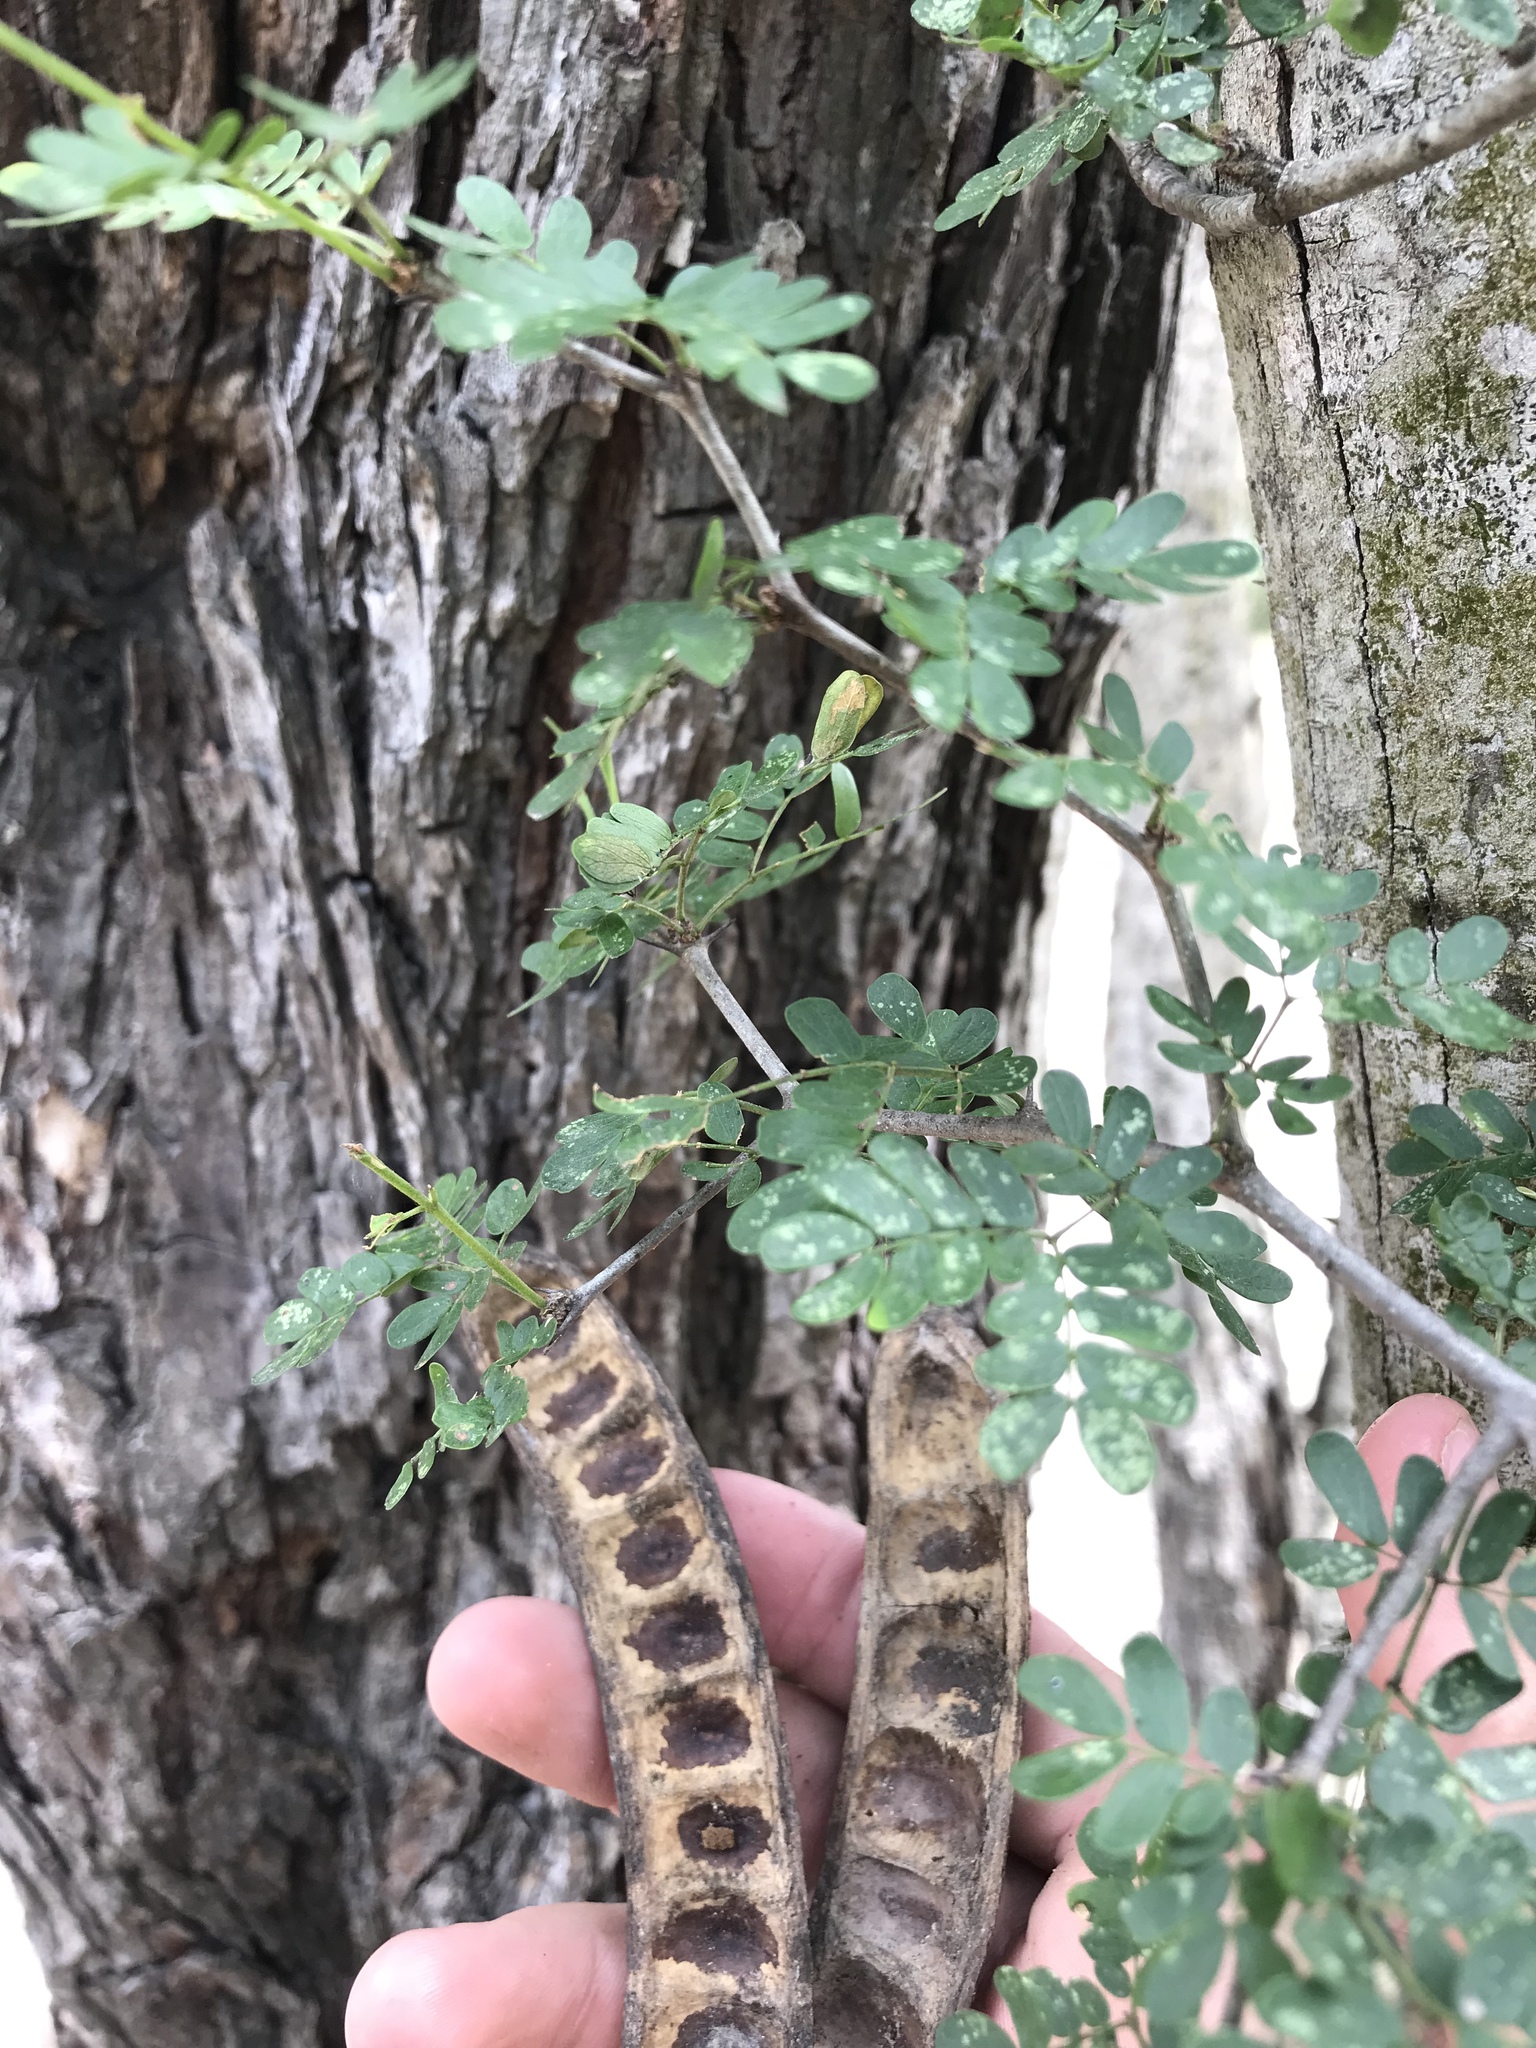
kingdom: Plantae
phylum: Tracheophyta
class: Magnoliopsida
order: Fabales
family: Fabaceae
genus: Ebenopsis
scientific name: Ebenopsis ebano
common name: Ebony blackbead
